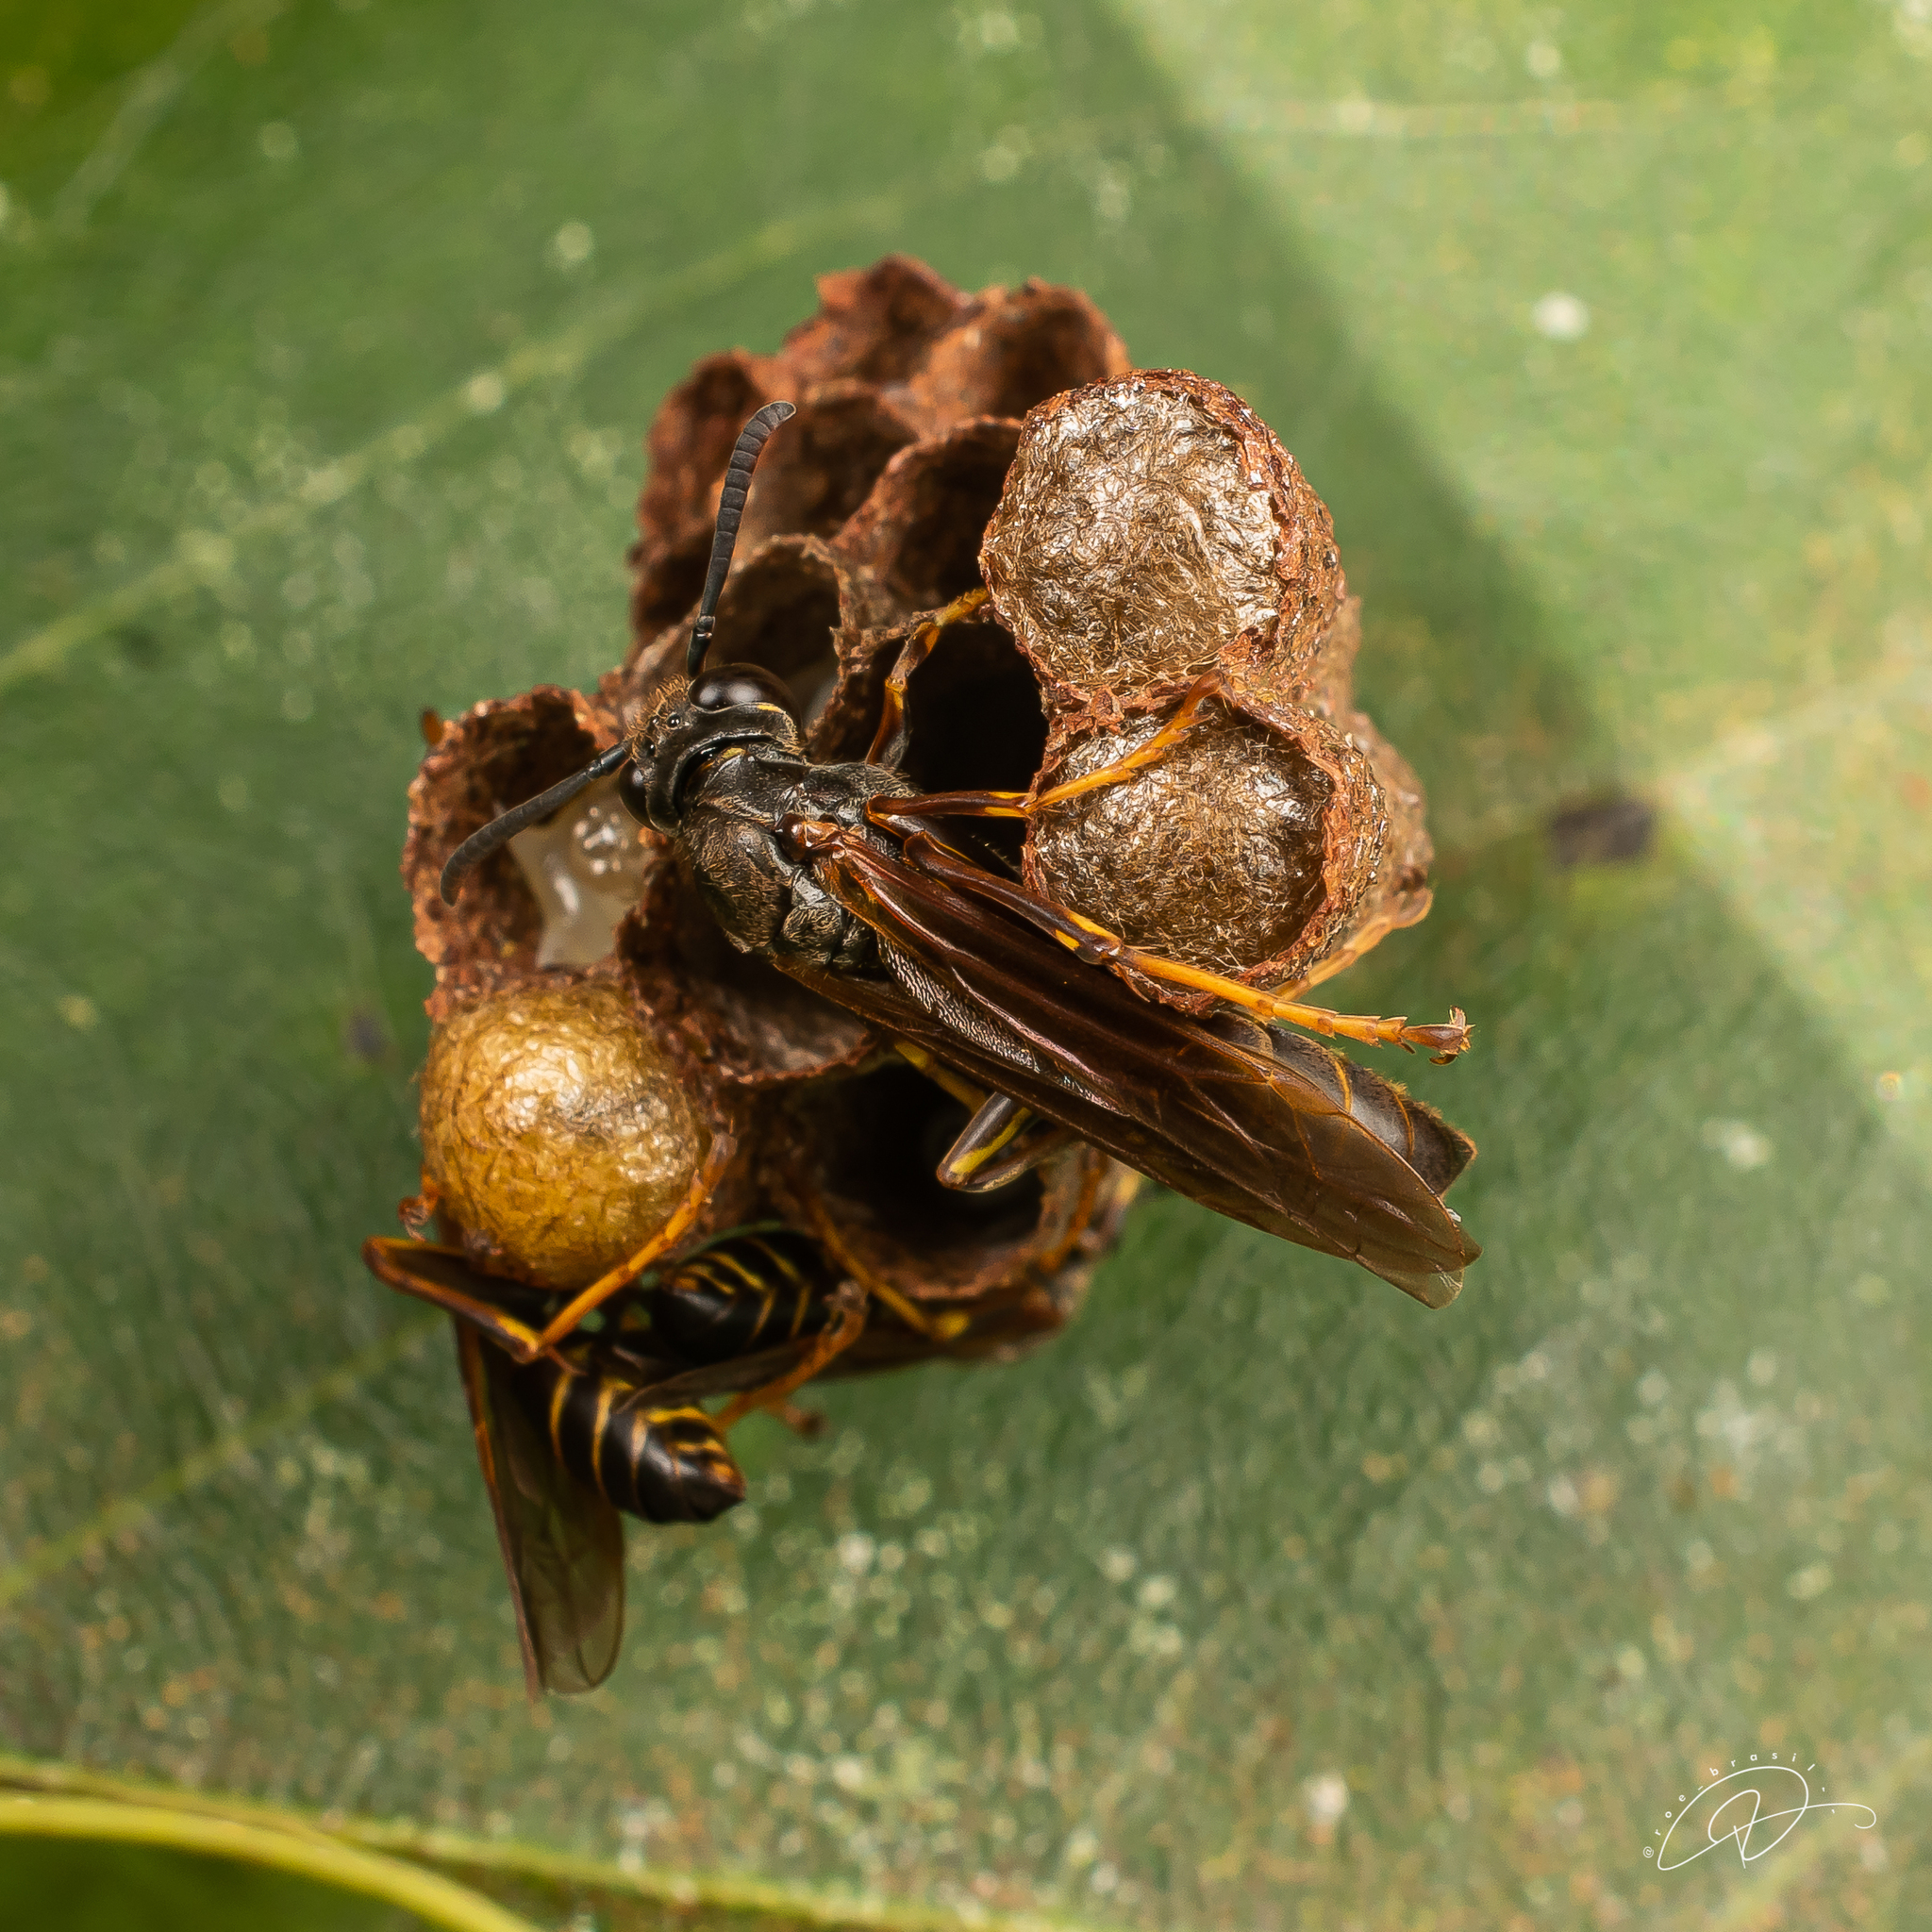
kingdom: Animalia
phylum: Arthropoda
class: Insecta
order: Hymenoptera
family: Vespidae
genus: Mischocyttarus
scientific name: Mischocyttarus
